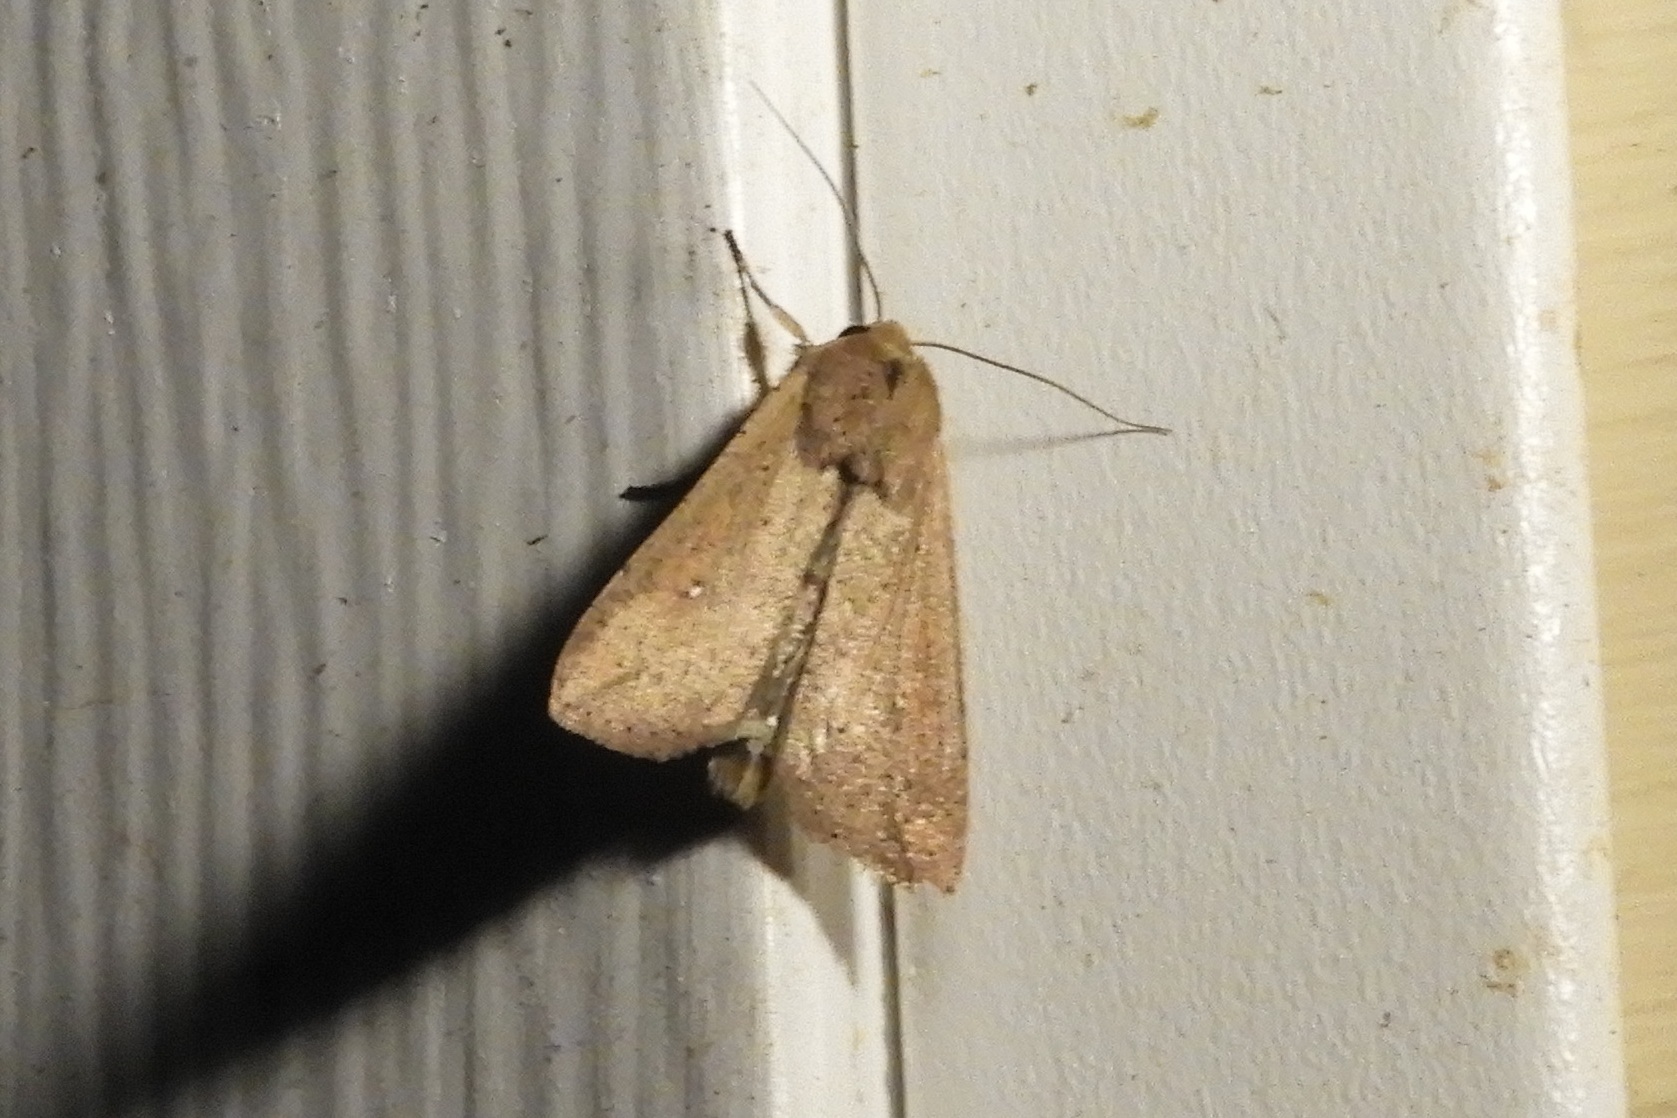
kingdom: Animalia
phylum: Arthropoda
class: Insecta
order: Lepidoptera
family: Noctuidae
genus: Mythimna
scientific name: Mythimna unipuncta
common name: White-speck
